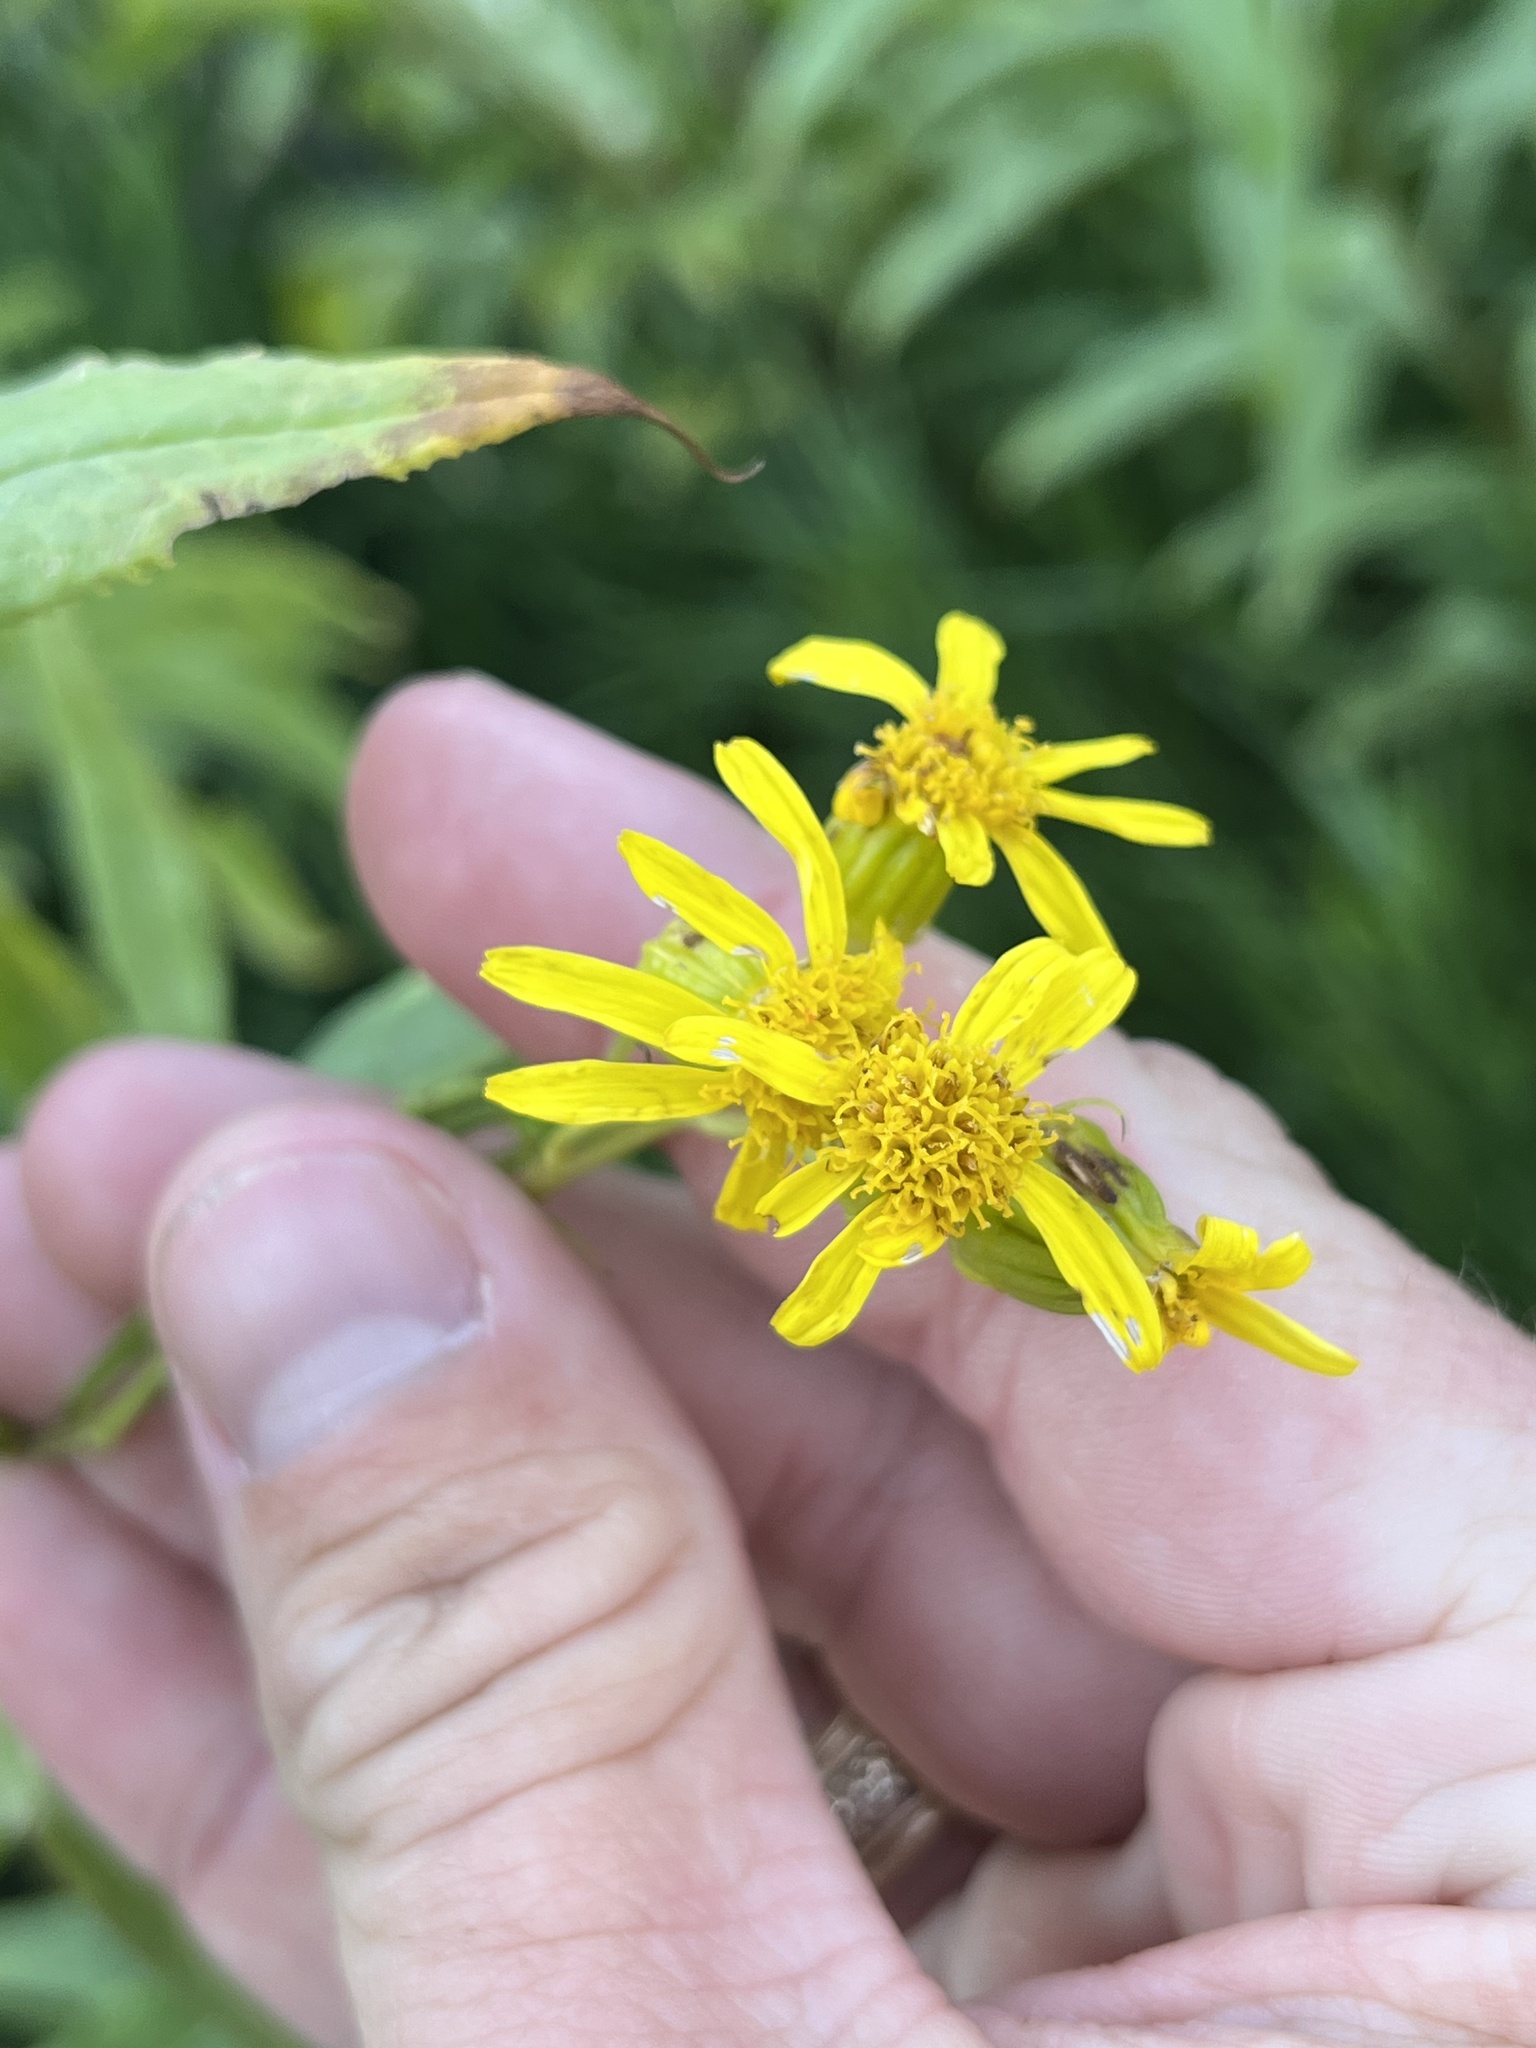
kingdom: Plantae
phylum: Tracheophyta
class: Magnoliopsida
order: Asterales
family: Asteraceae
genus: Senecio
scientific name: Senecio serra
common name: Tall ragwort
